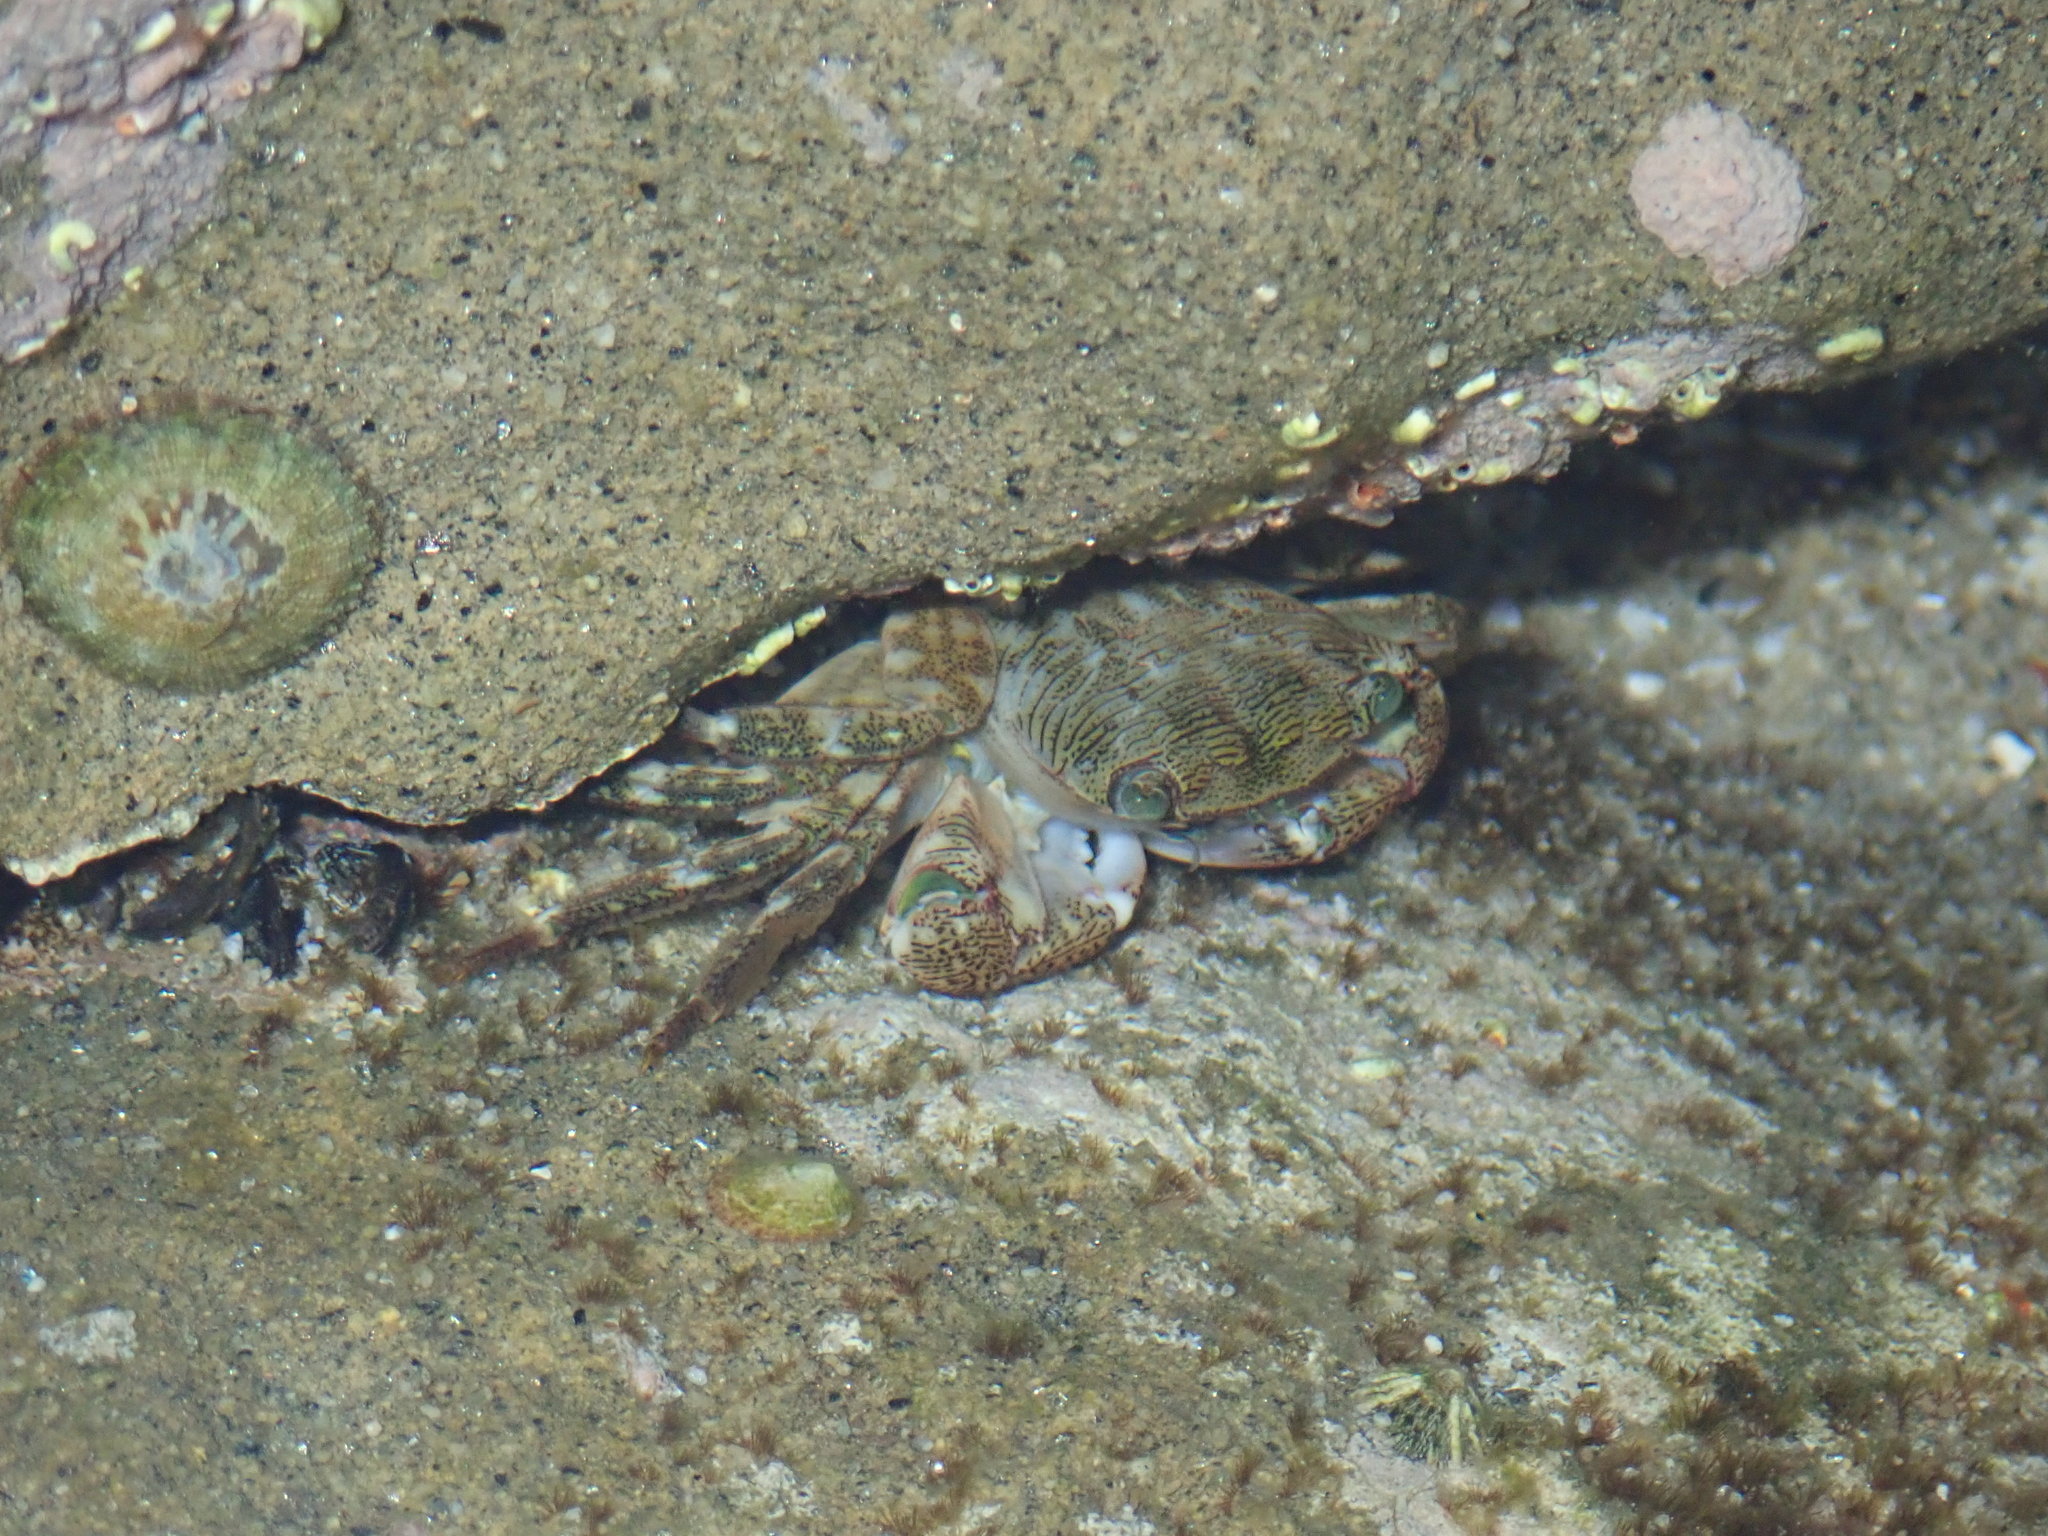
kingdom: Animalia
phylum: Arthropoda
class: Malacostraca
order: Decapoda
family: Grapsidae
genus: Pachygrapsus
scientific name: Pachygrapsus crassipes
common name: Striped shore crab
